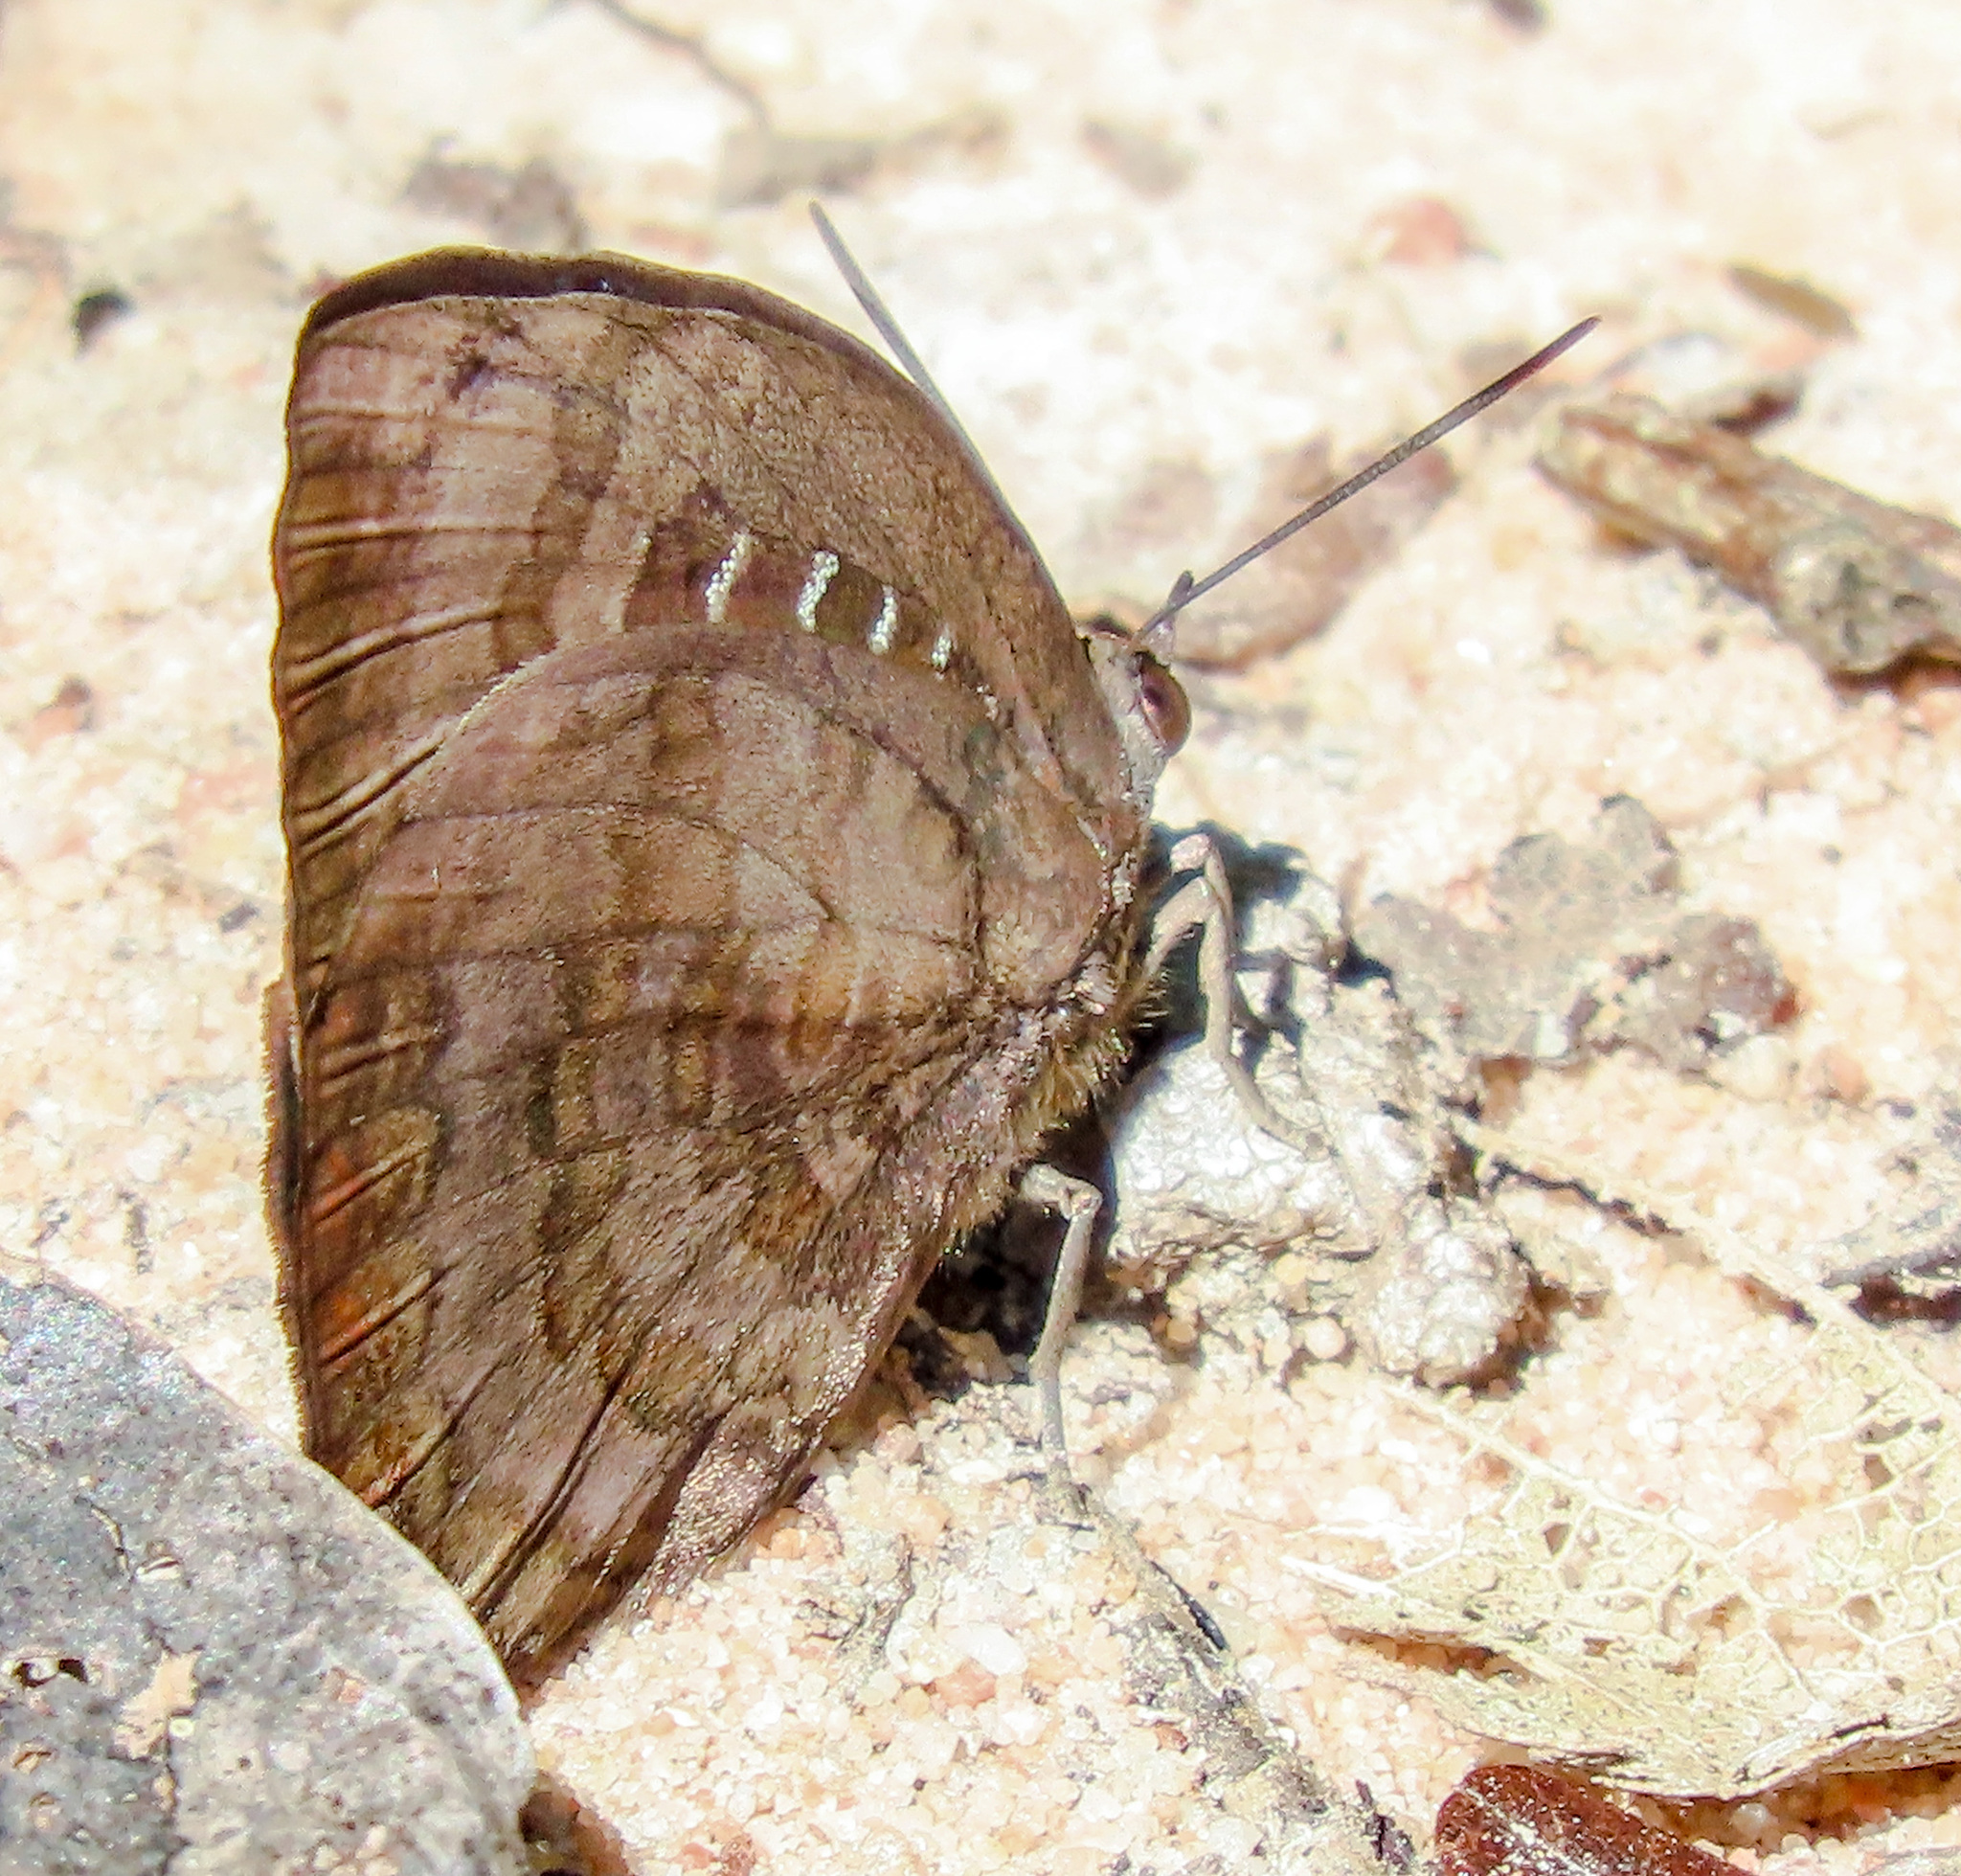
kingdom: Animalia
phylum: Arthropoda
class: Insecta
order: Lepidoptera
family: Lycaenidae
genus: Arhopala
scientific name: Arhopala centaurus
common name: Dull oak-blue
